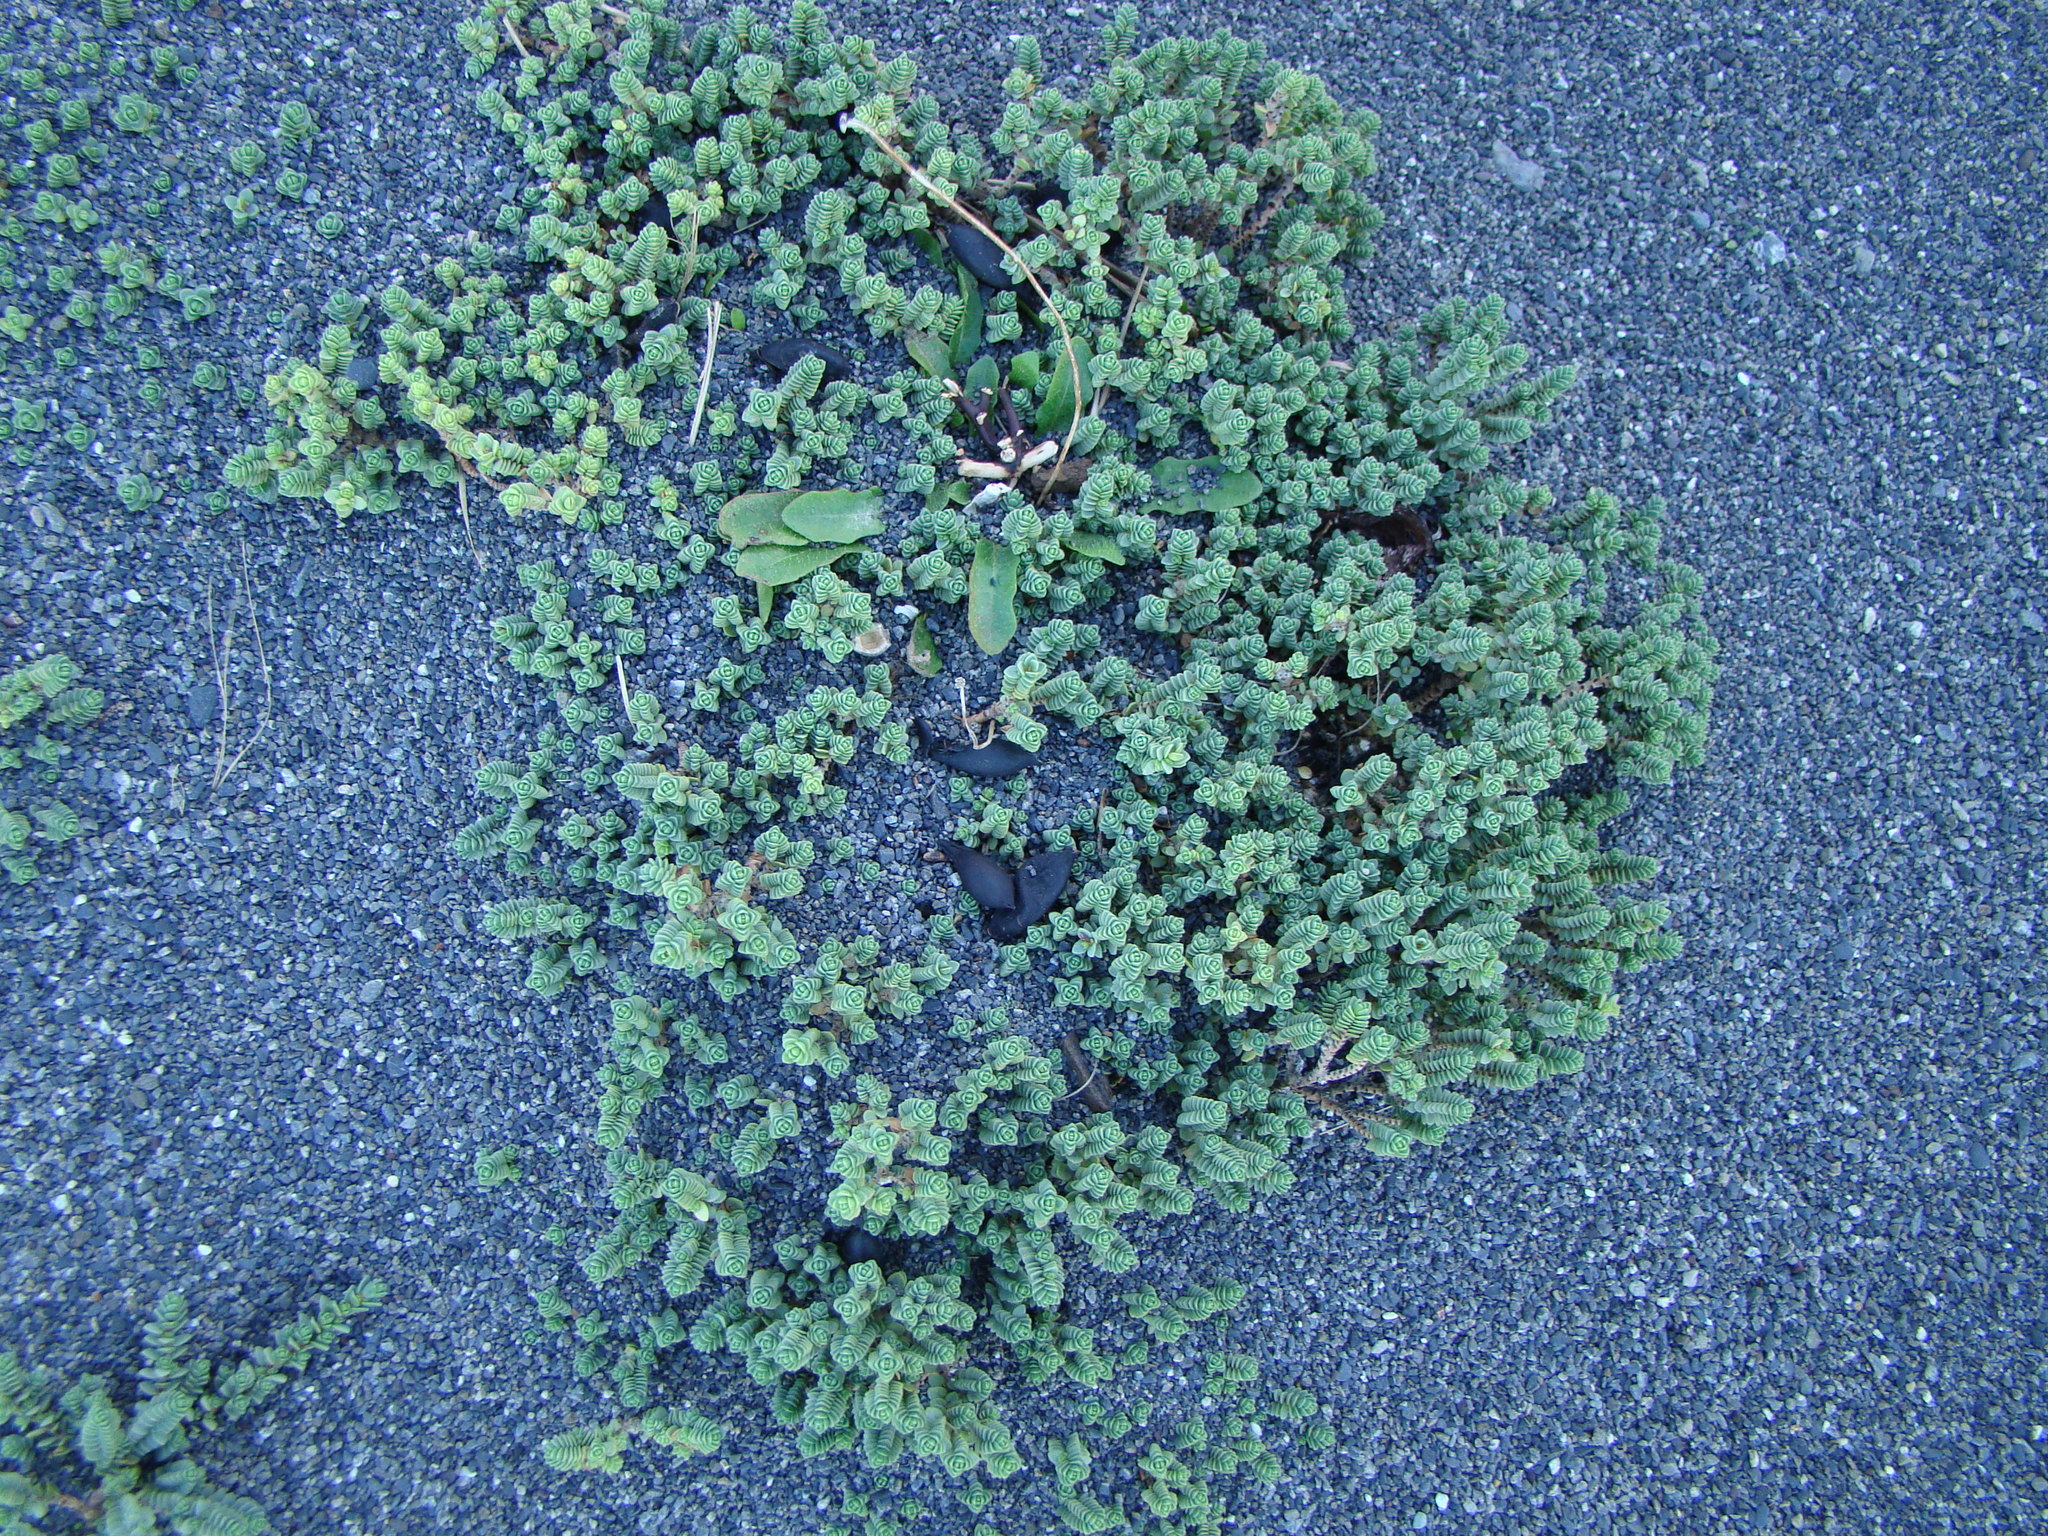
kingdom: Plantae
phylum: Tracheophyta
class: Magnoliopsida
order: Malvales
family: Thymelaeaceae
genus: Pimelea
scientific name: Pimelea prostrata
